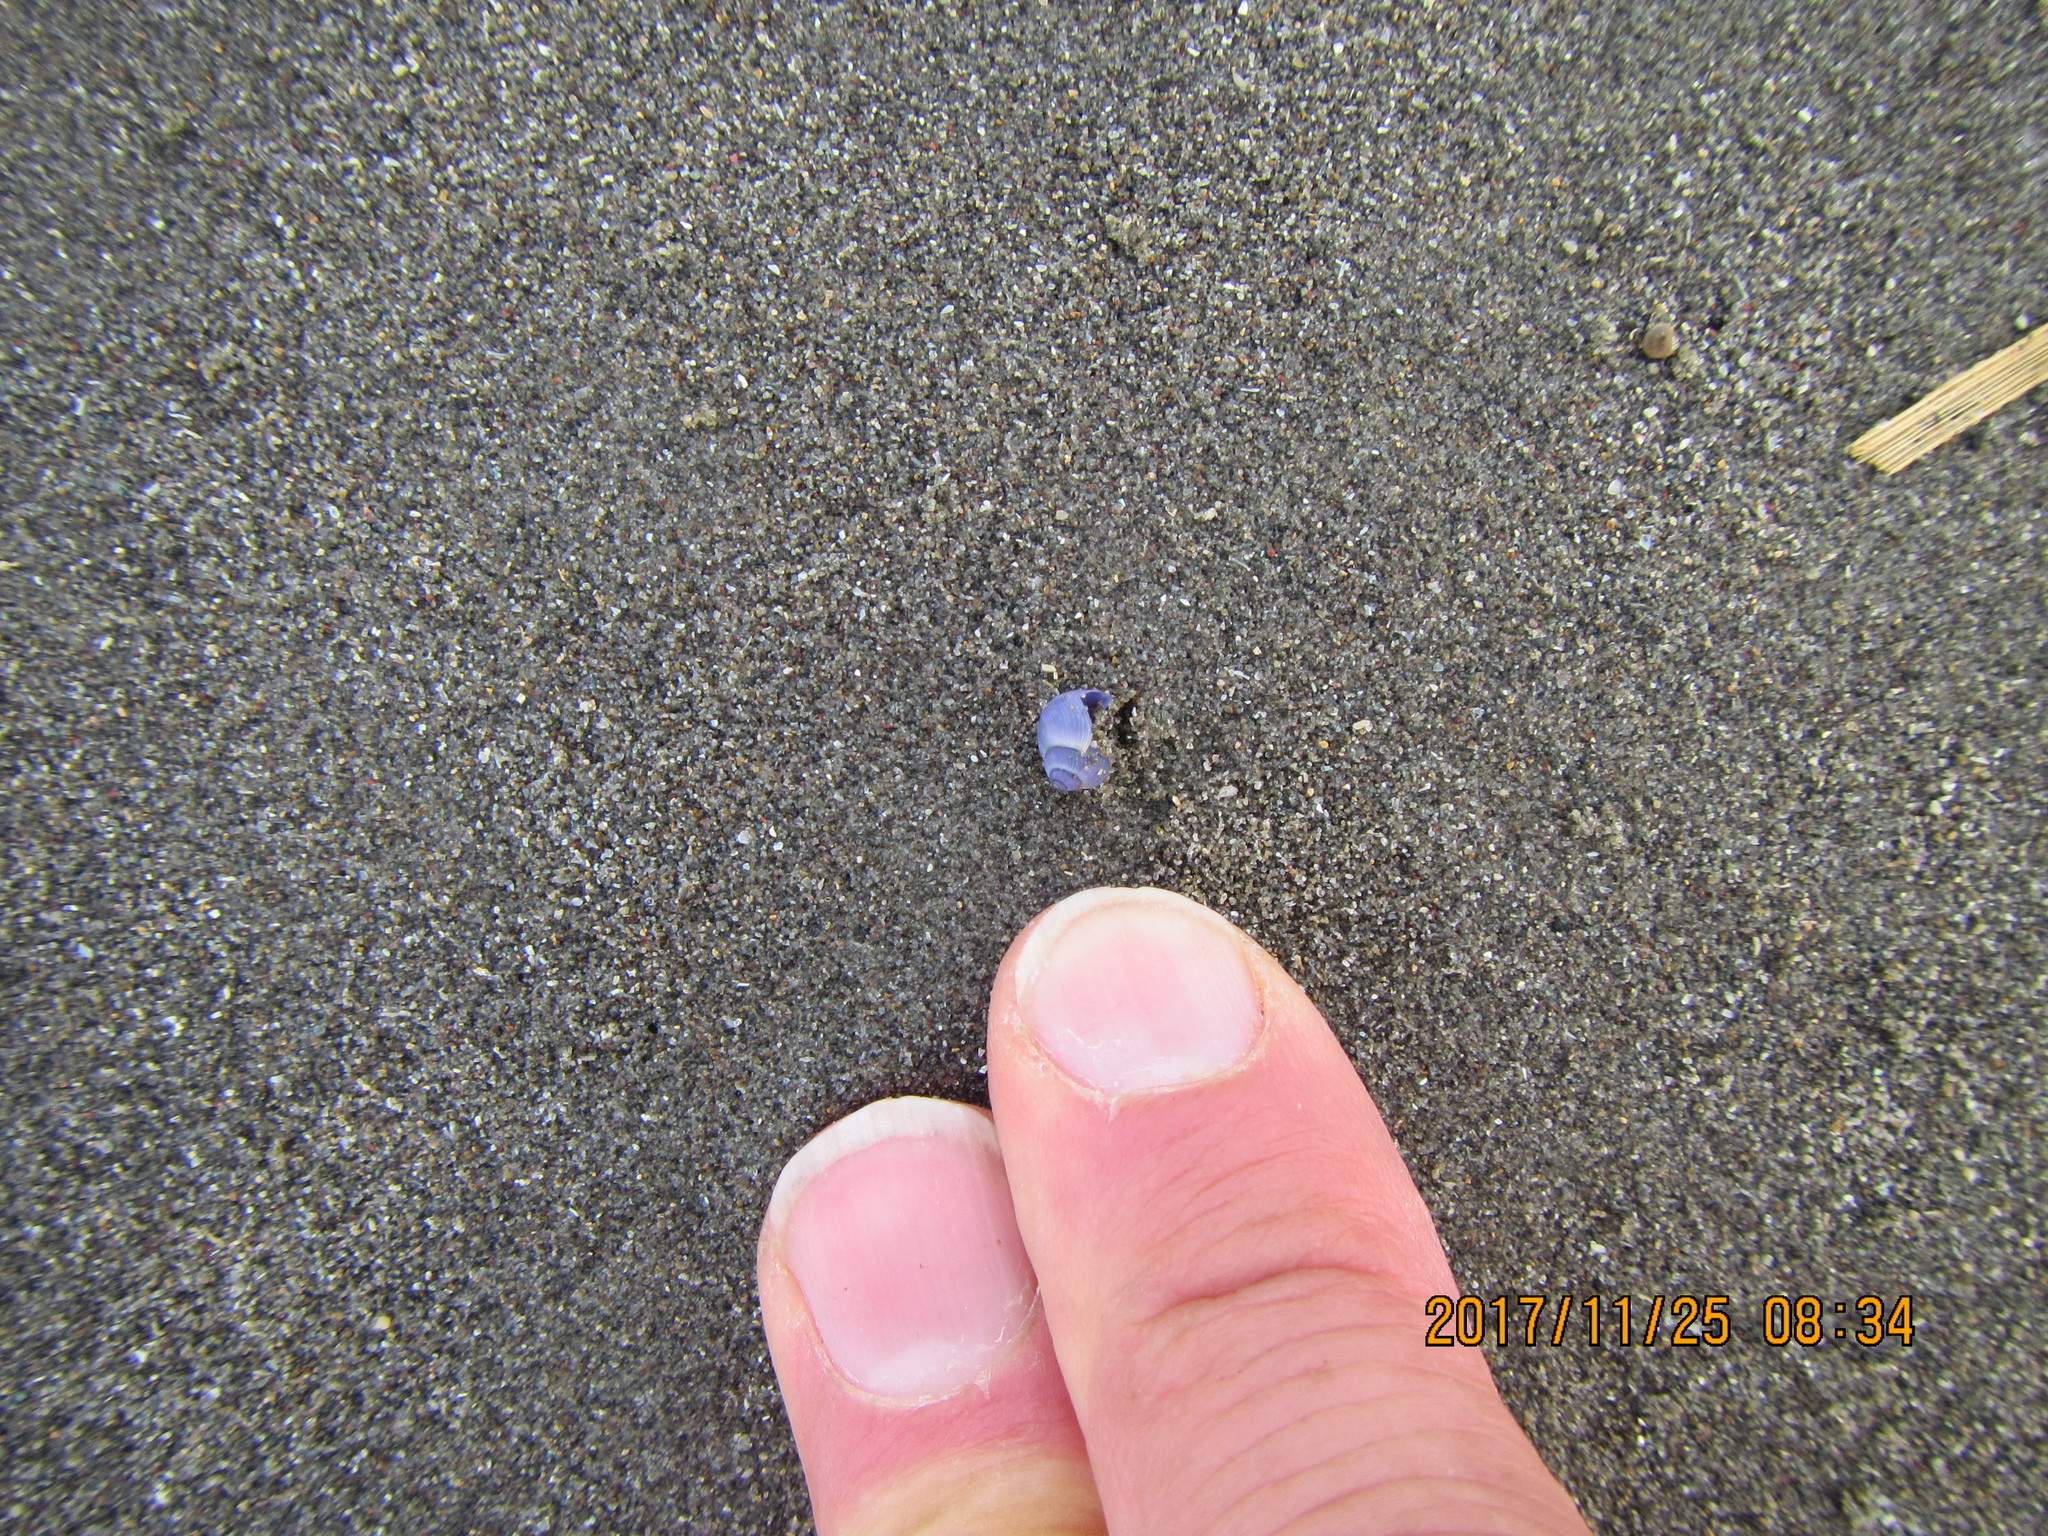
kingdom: Animalia
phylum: Mollusca
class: Gastropoda
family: Epitoniidae
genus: Janthina
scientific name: Janthina exigua
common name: Dwarf janthina
